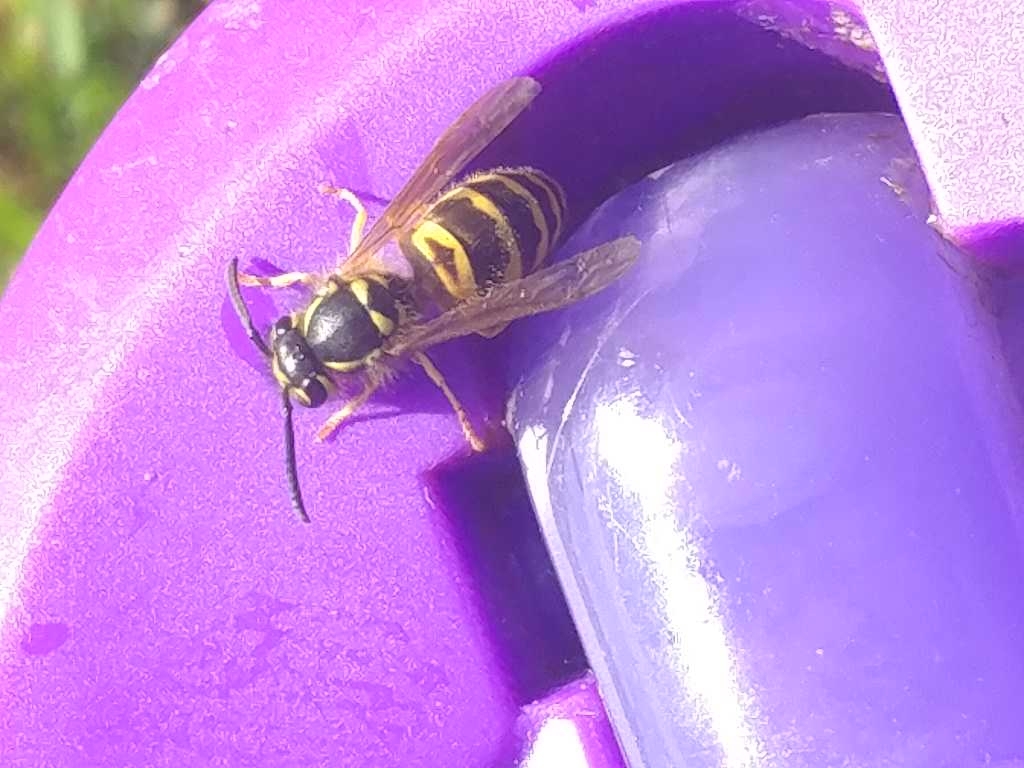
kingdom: Animalia
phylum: Arthropoda
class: Insecta
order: Hymenoptera
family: Vespidae
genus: Vespula
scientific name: Vespula maculifrons
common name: Eastern yellowjacket
